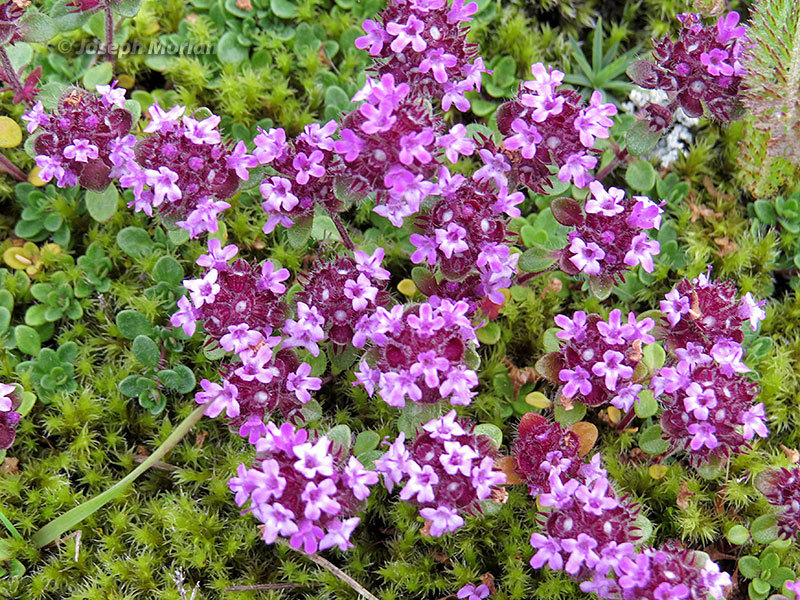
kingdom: Plantae
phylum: Tracheophyta
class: Magnoliopsida
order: Lamiales
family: Lamiaceae
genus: Thymus
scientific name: Thymus praecox
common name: Wild thyme
